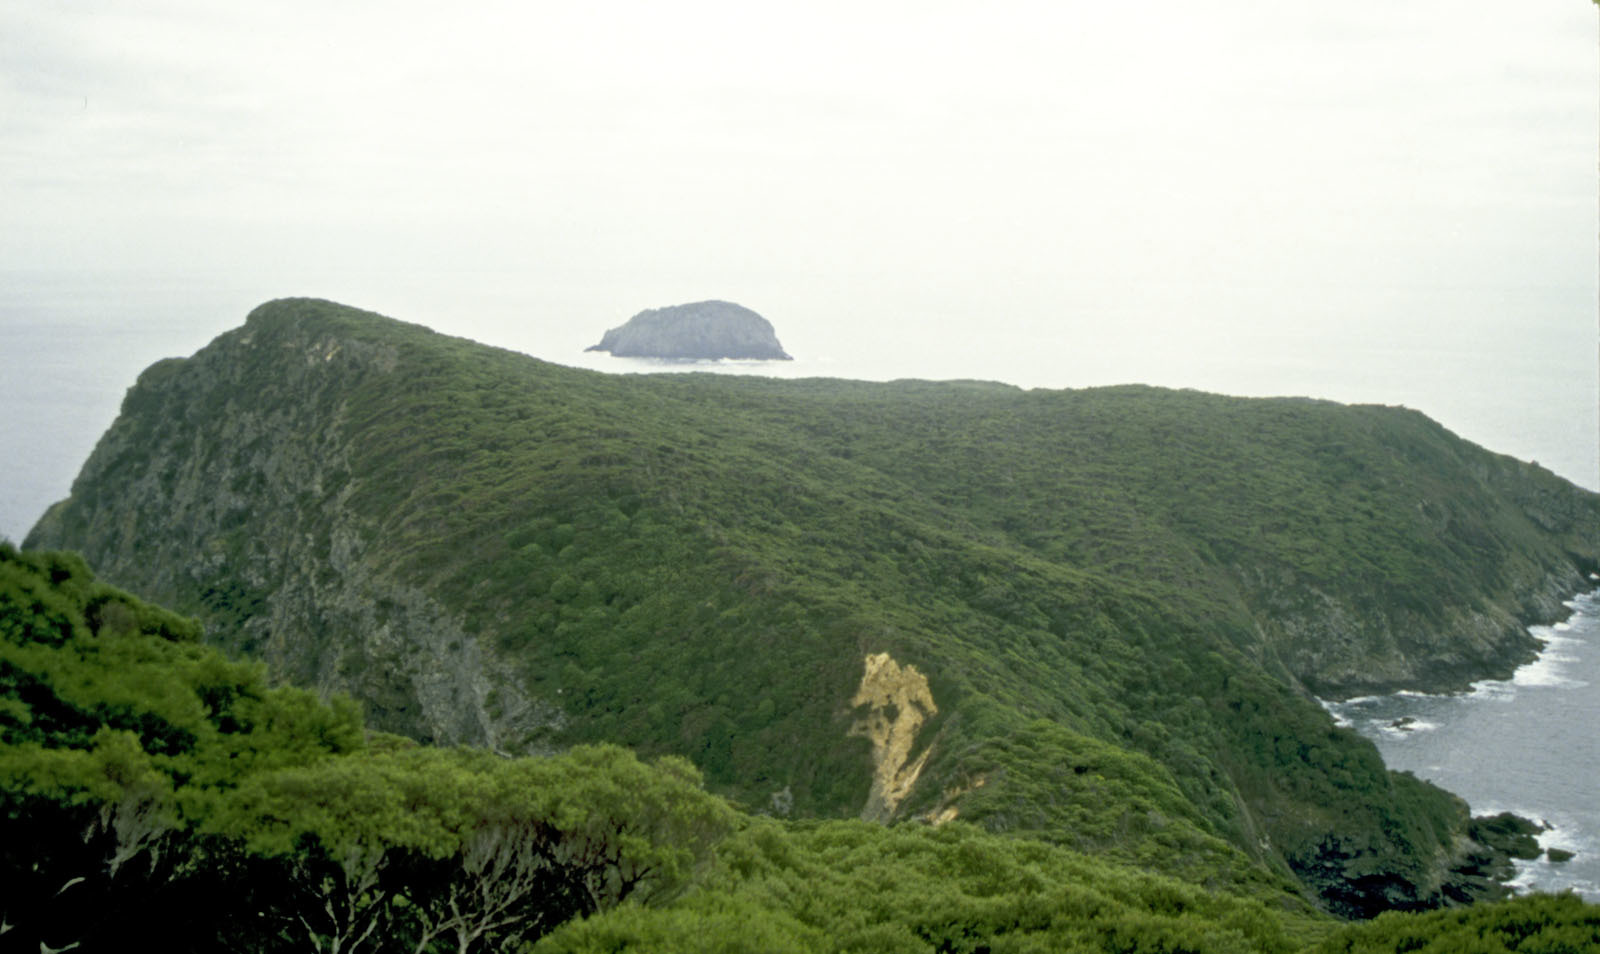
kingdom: Plantae
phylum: Tracheophyta
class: Magnoliopsida
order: Myrtales
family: Myrtaceae
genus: Kunzea
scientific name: Kunzea triregensis
